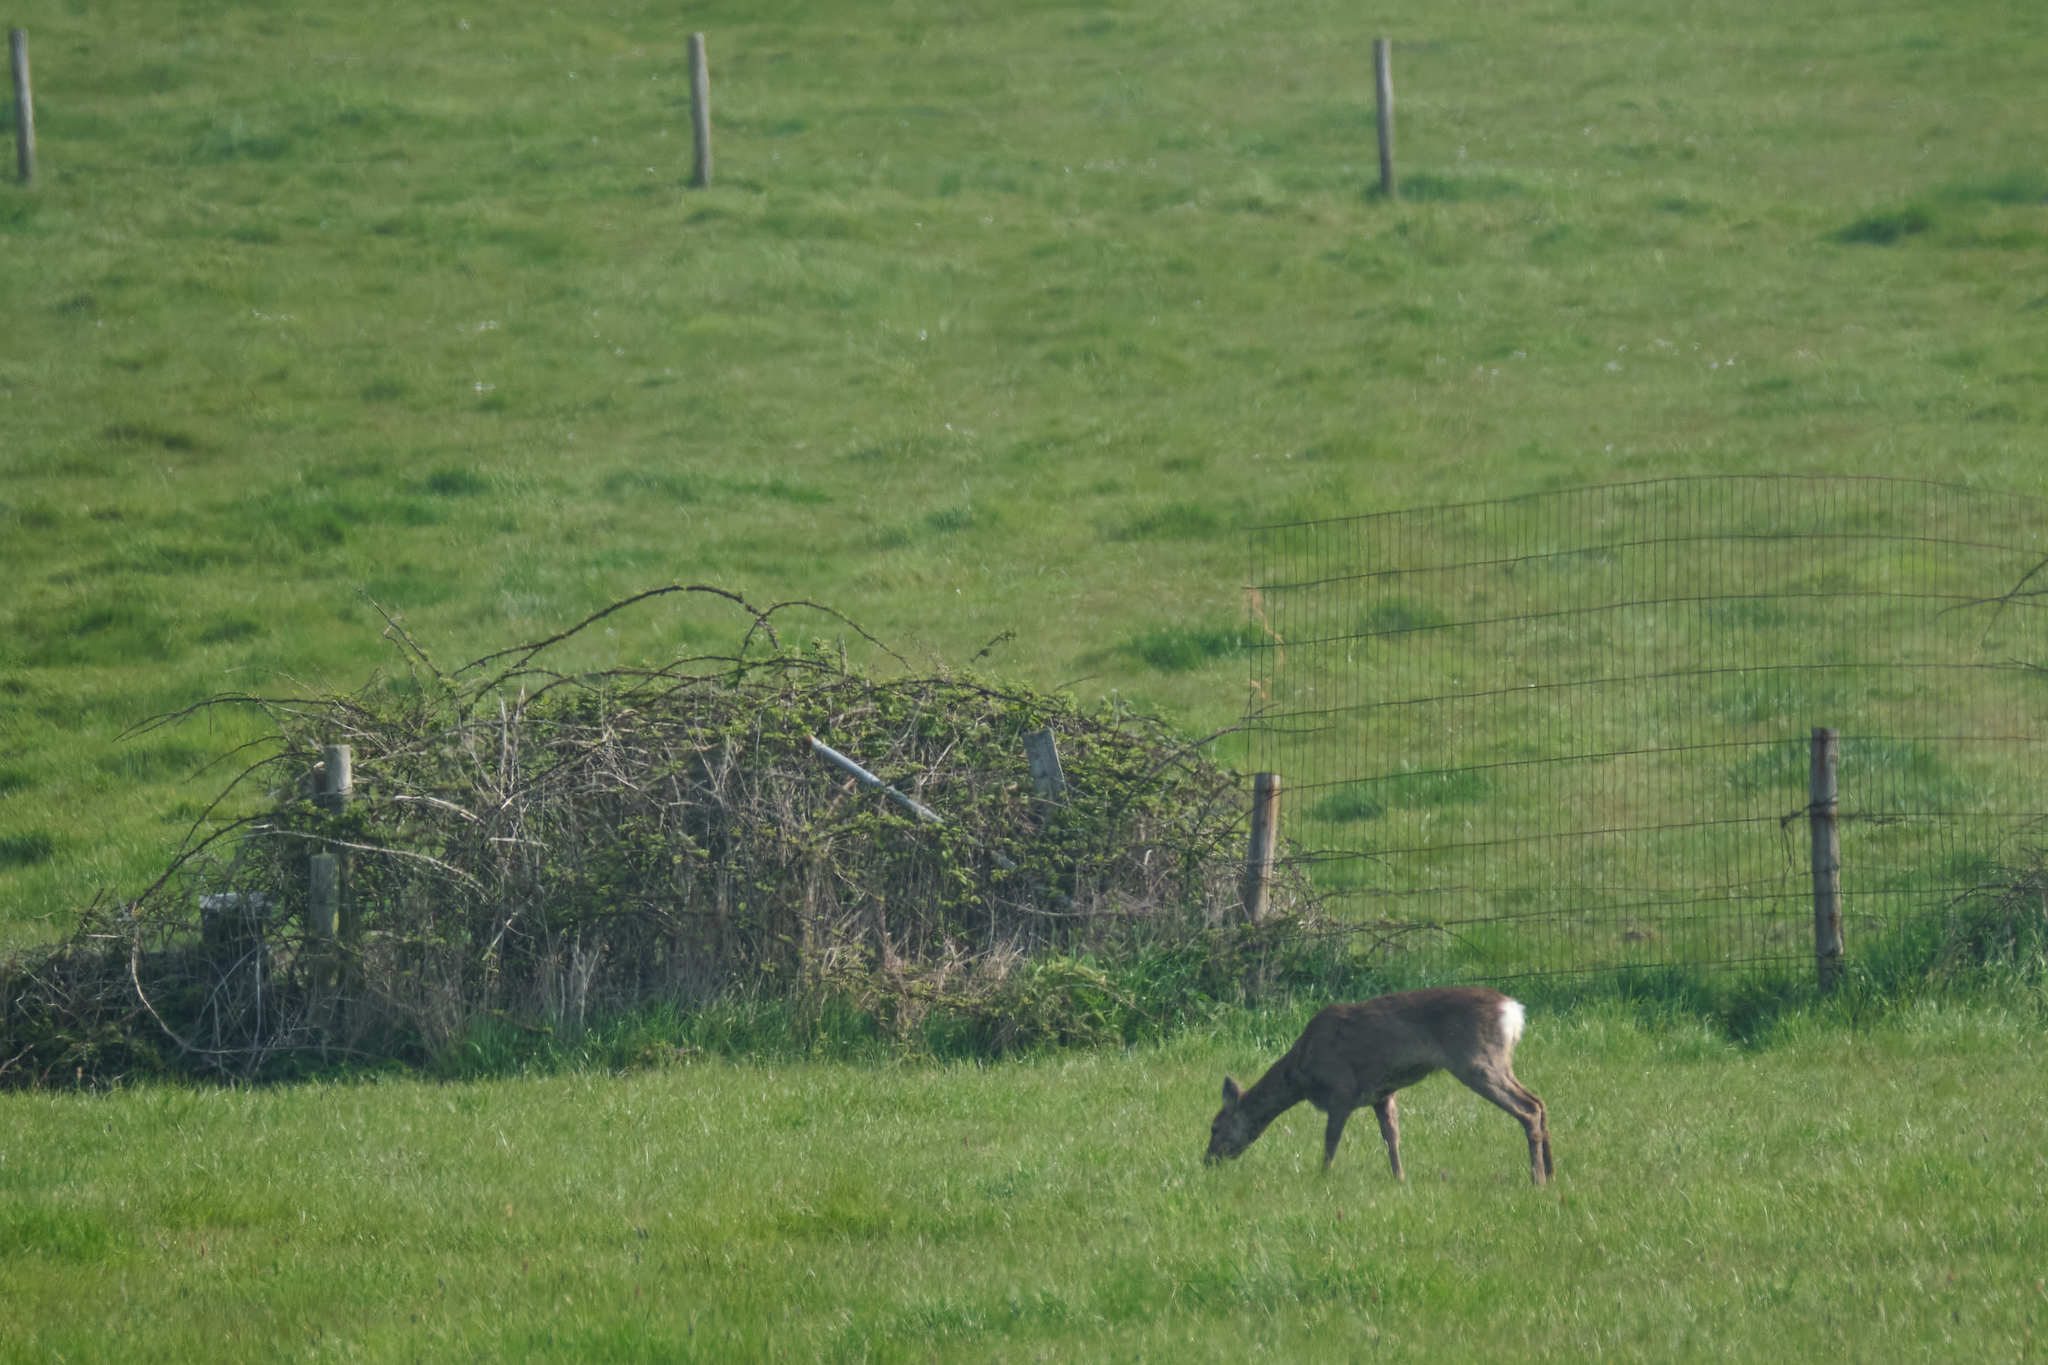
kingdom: Animalia
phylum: Chordata
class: Mammalia
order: Artiodactyla
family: Cervidae
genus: Capreolus
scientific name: Capreolus capreolus
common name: Western roe deer
